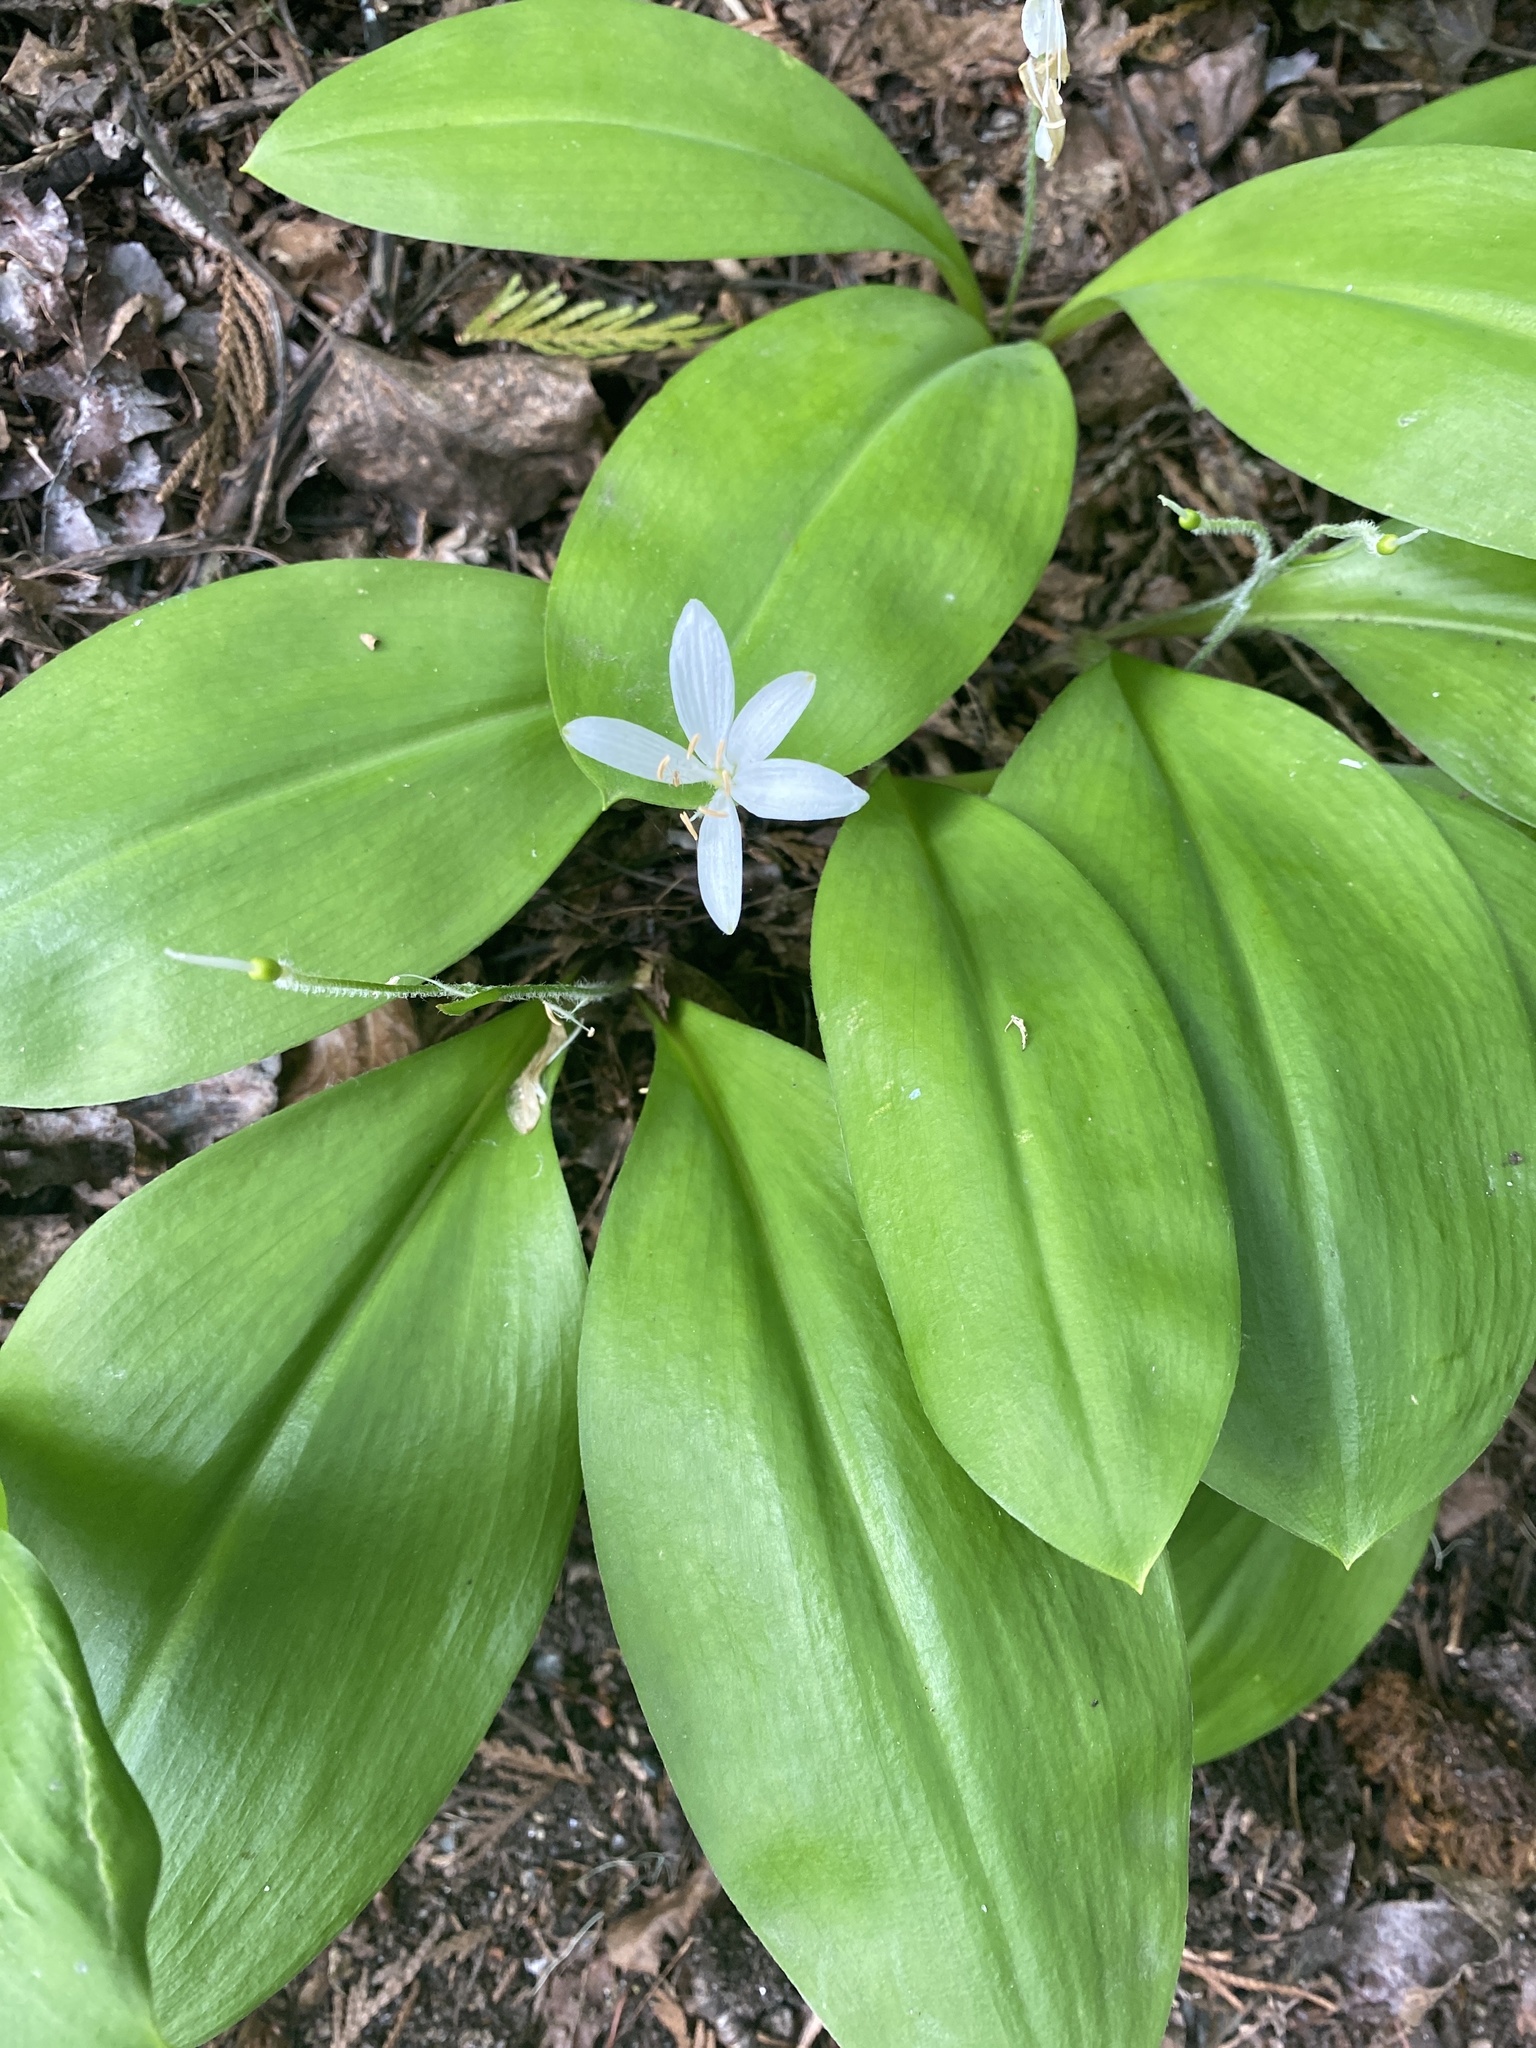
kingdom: Plantae
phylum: Tracheophyta
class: Liliopsida
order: Liliales
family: Liliaceae
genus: Clintonia
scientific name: Clintonia uniflora
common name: Queen's cup
